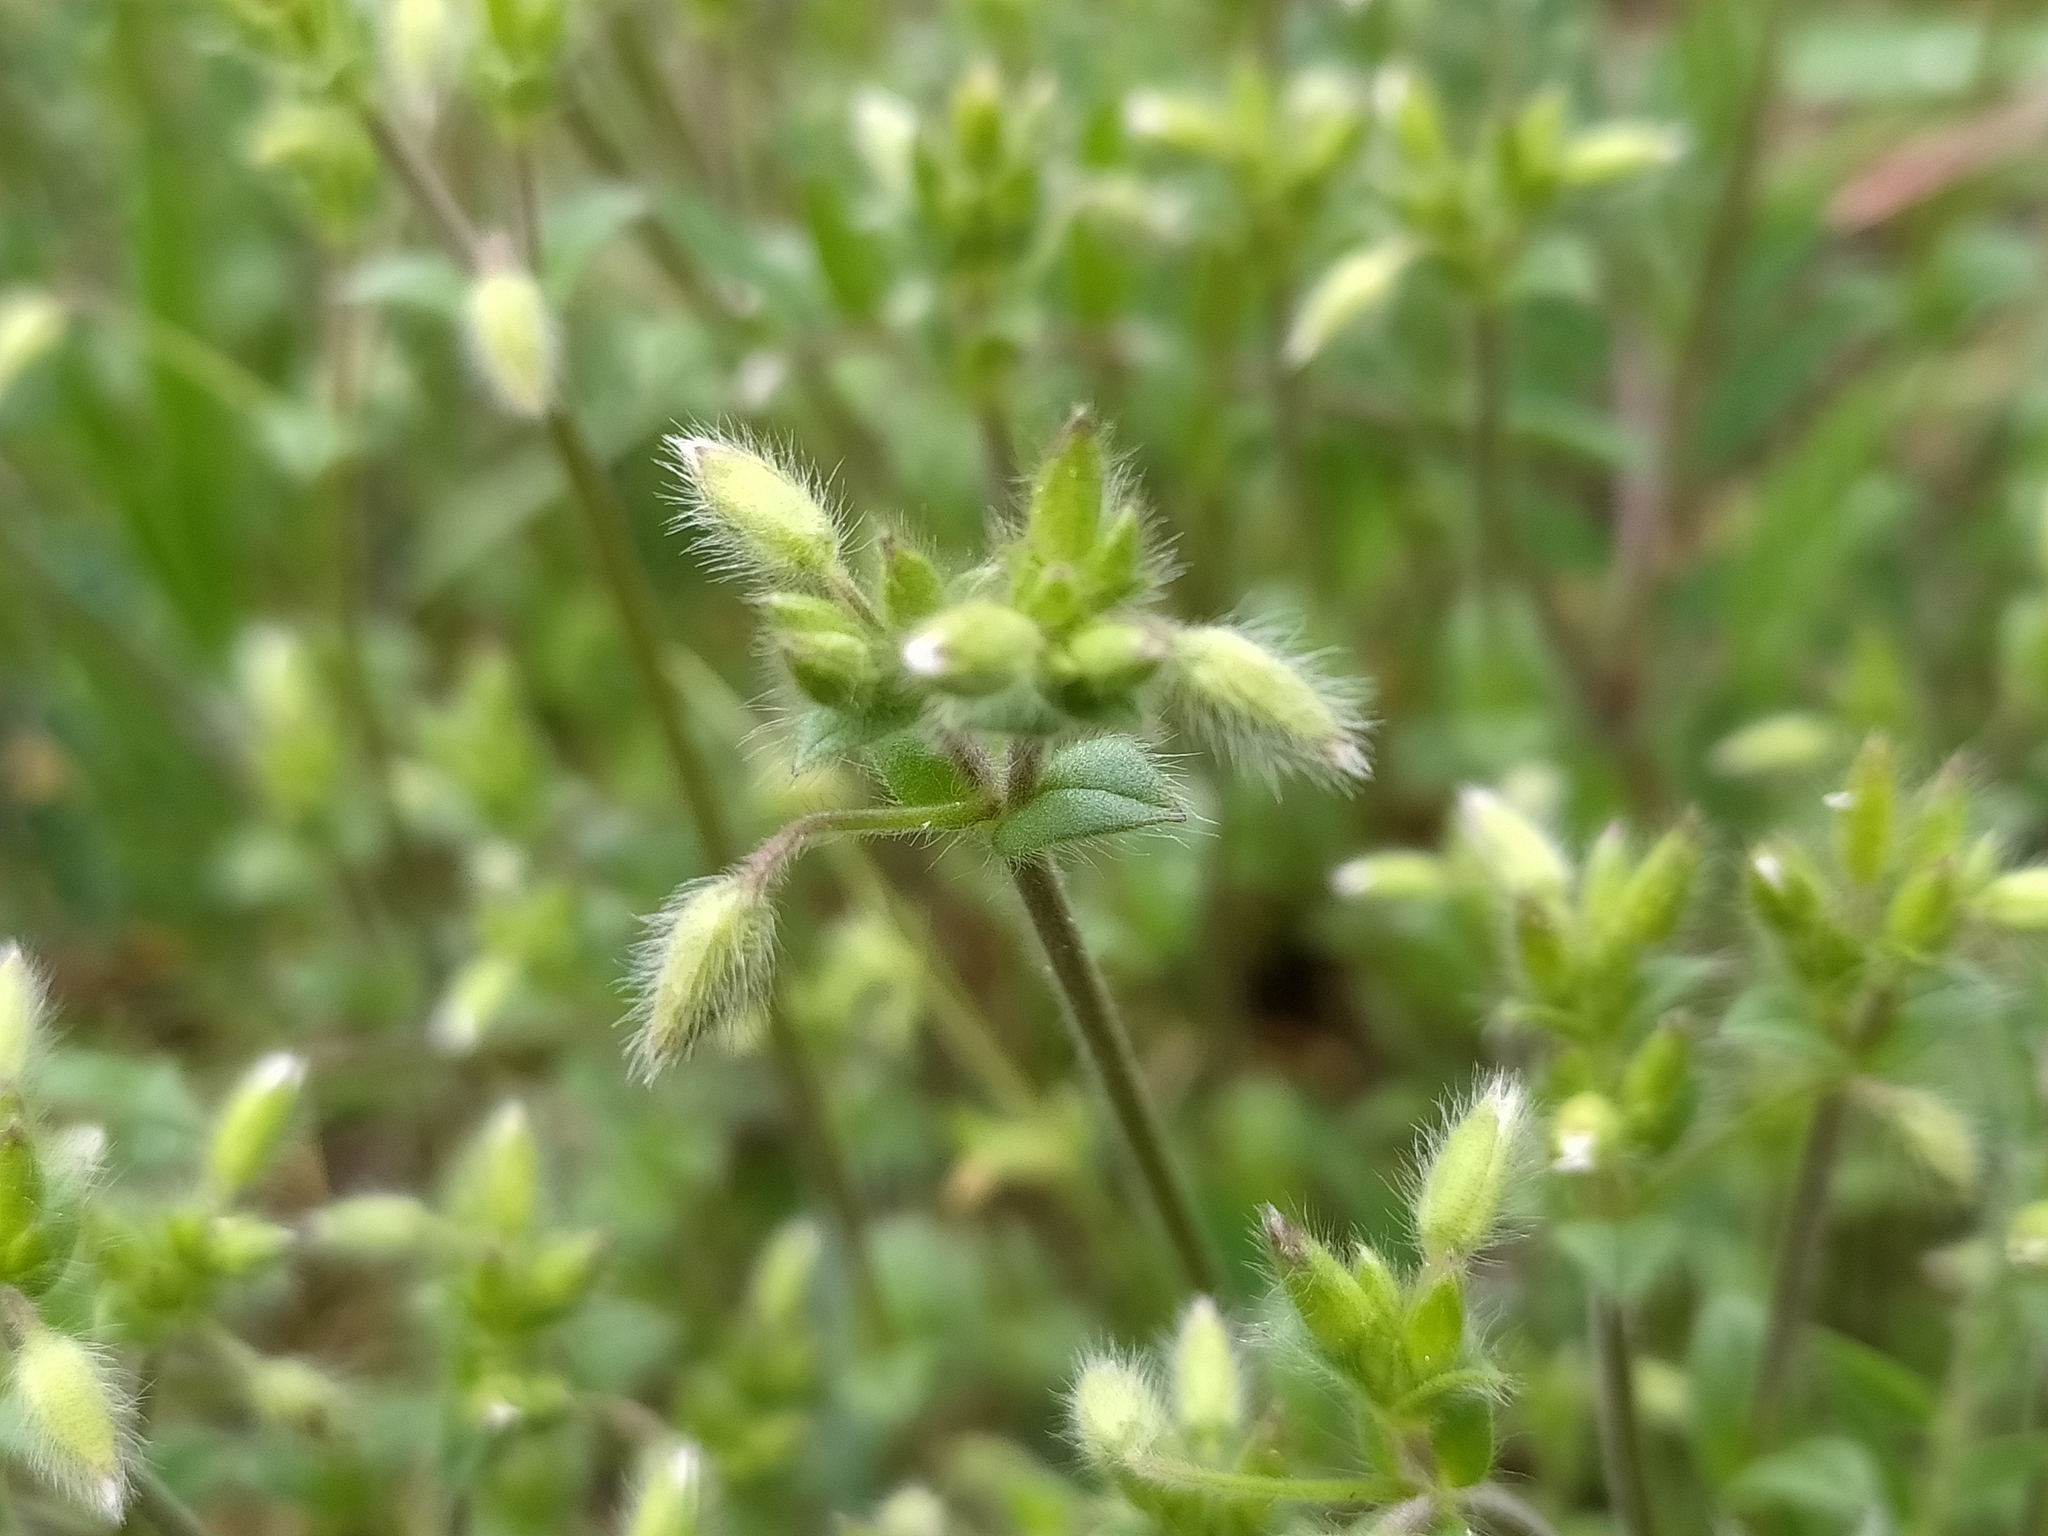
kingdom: Plantae
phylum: Tracheophyta
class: Magnoliopsida
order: Caryophyllales
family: Caryophyllaceae
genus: Cerastium
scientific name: Cerastium brachypetalum
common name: Grey mouse-ear
